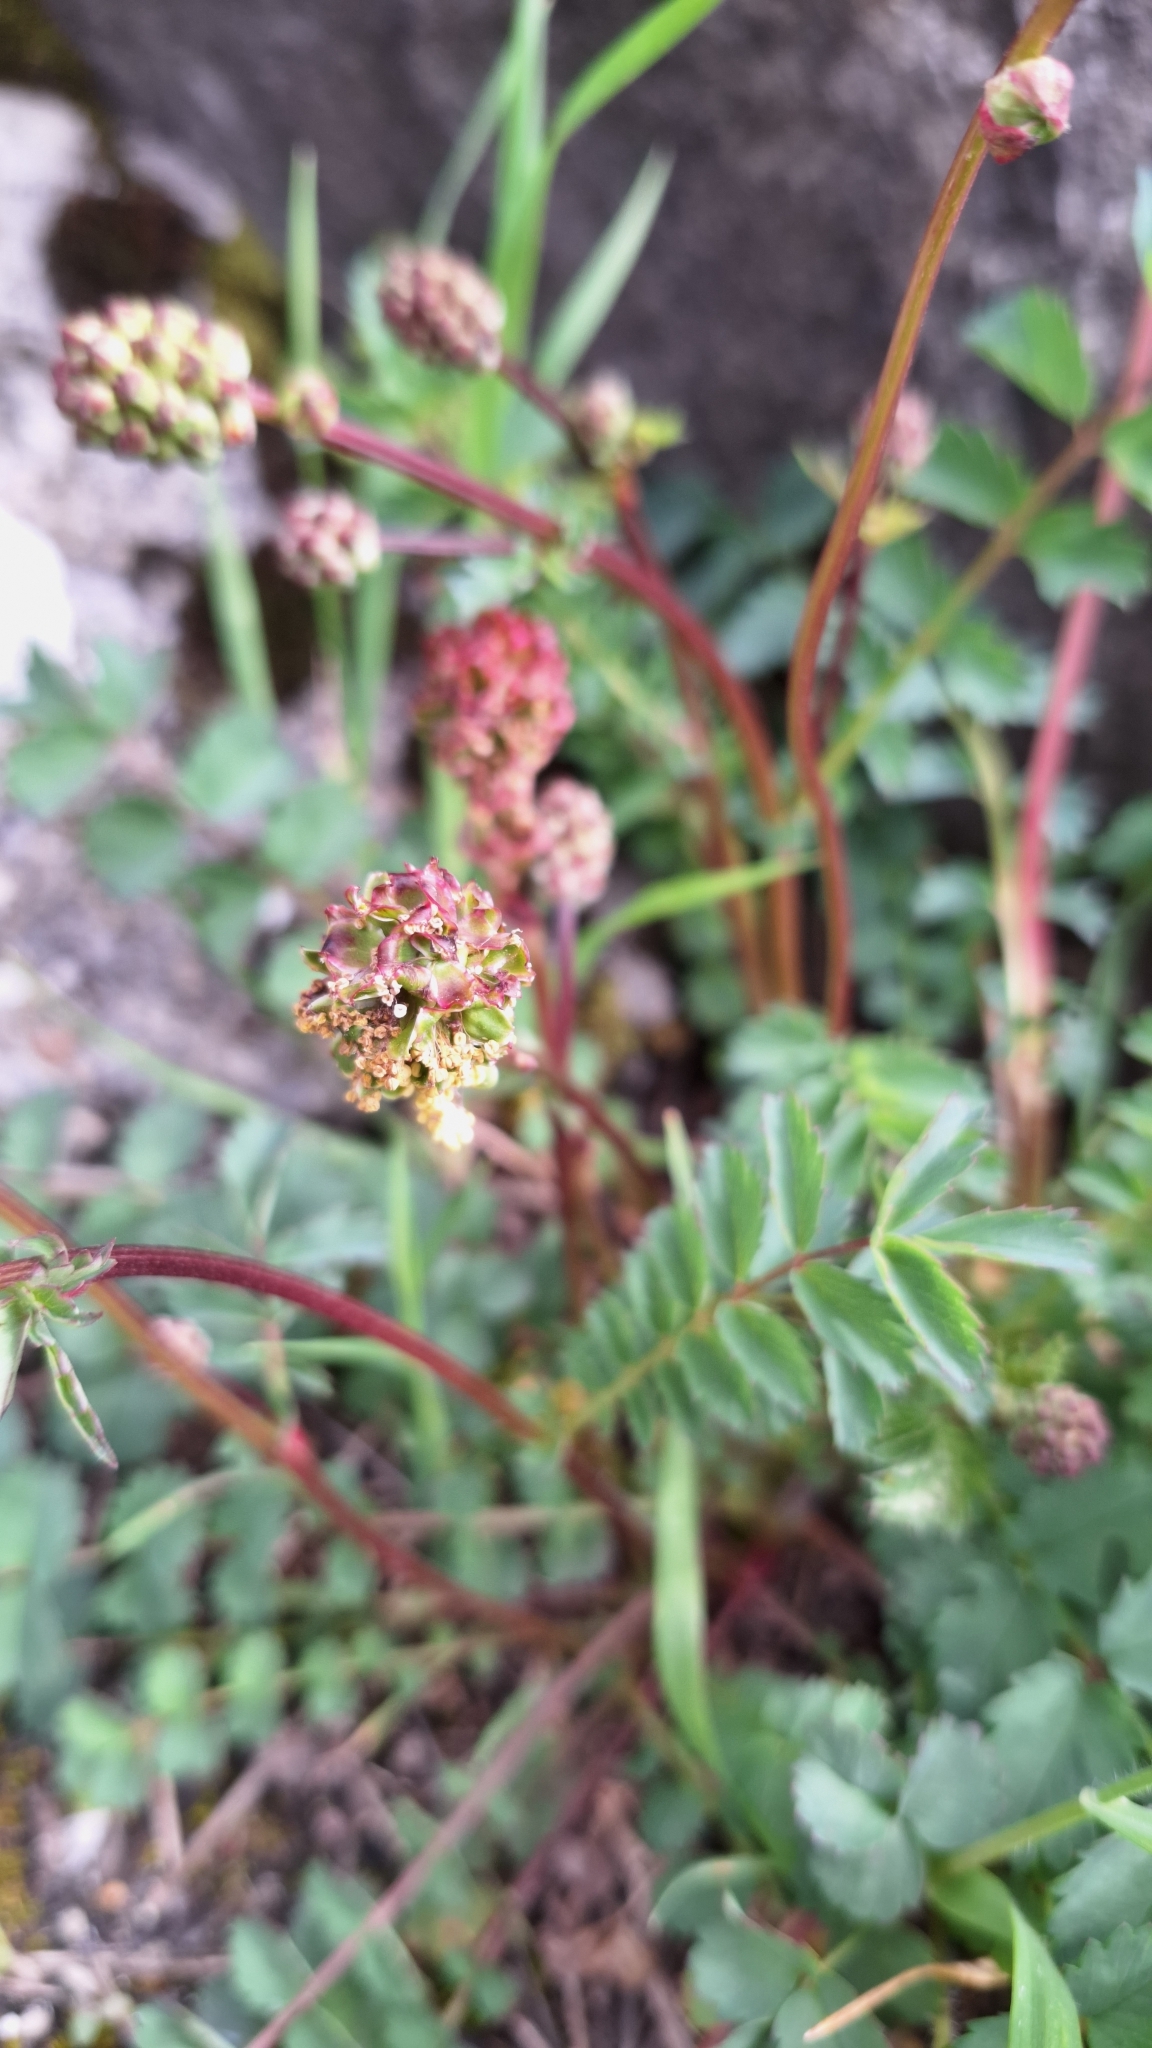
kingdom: Plantae
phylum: Tracheophyta
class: Magnoliopsida
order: Rosales
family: Rosaceae
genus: Poterium
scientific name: Poterium sanguisorba
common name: Salad burnet
